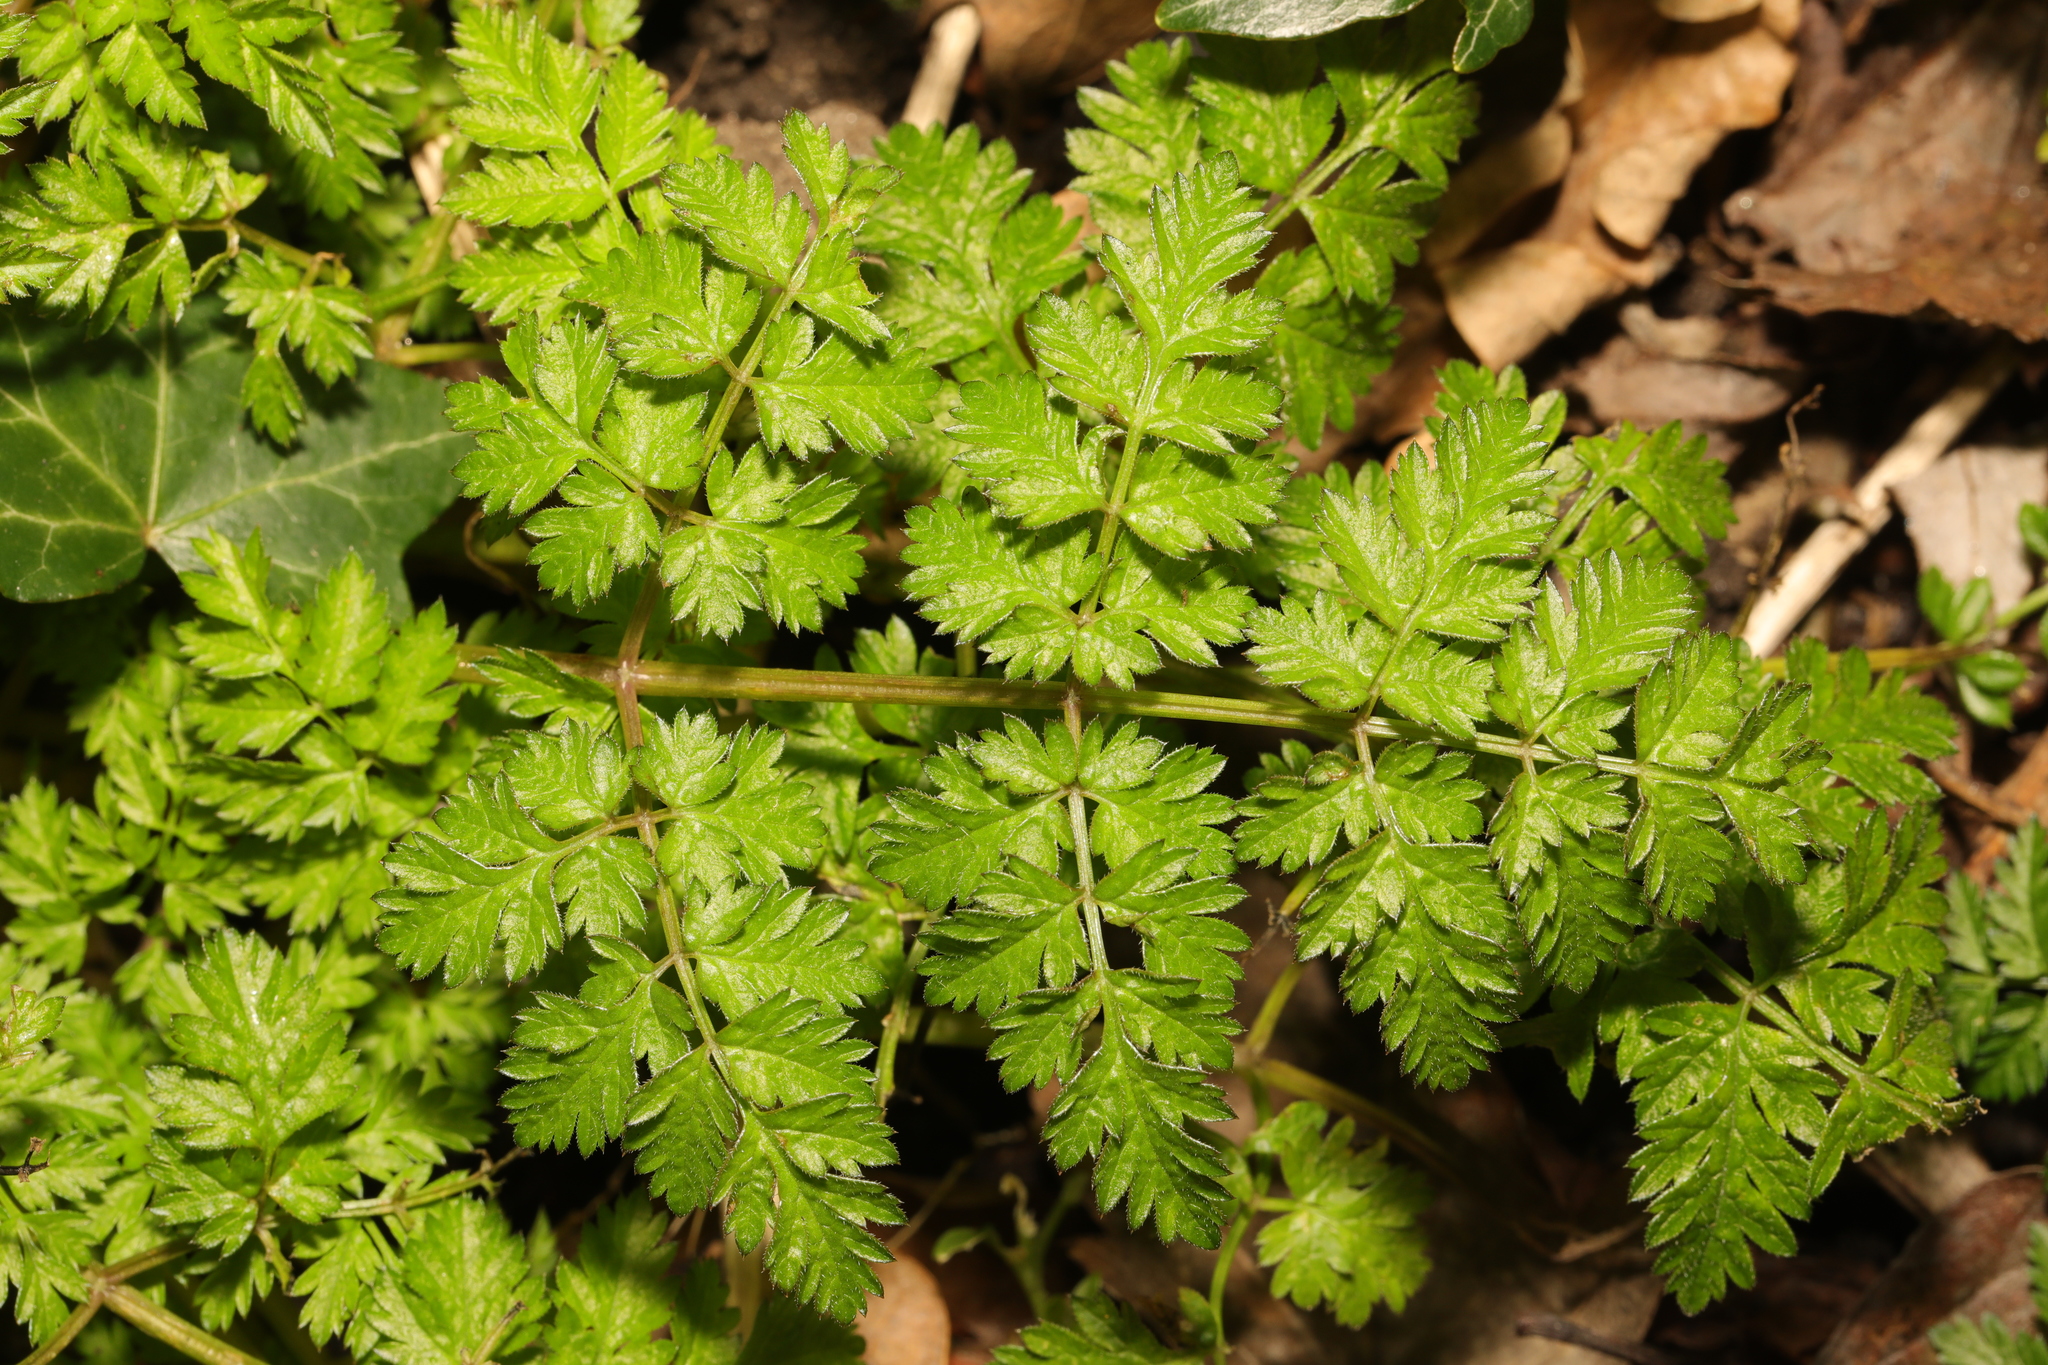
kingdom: Plantae
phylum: Tracheophyta
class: Magnoliopsida
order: Apiales
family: Apiaceae
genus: Anthriscus
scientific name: Anthriscus sylvestris
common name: Cow parsley
